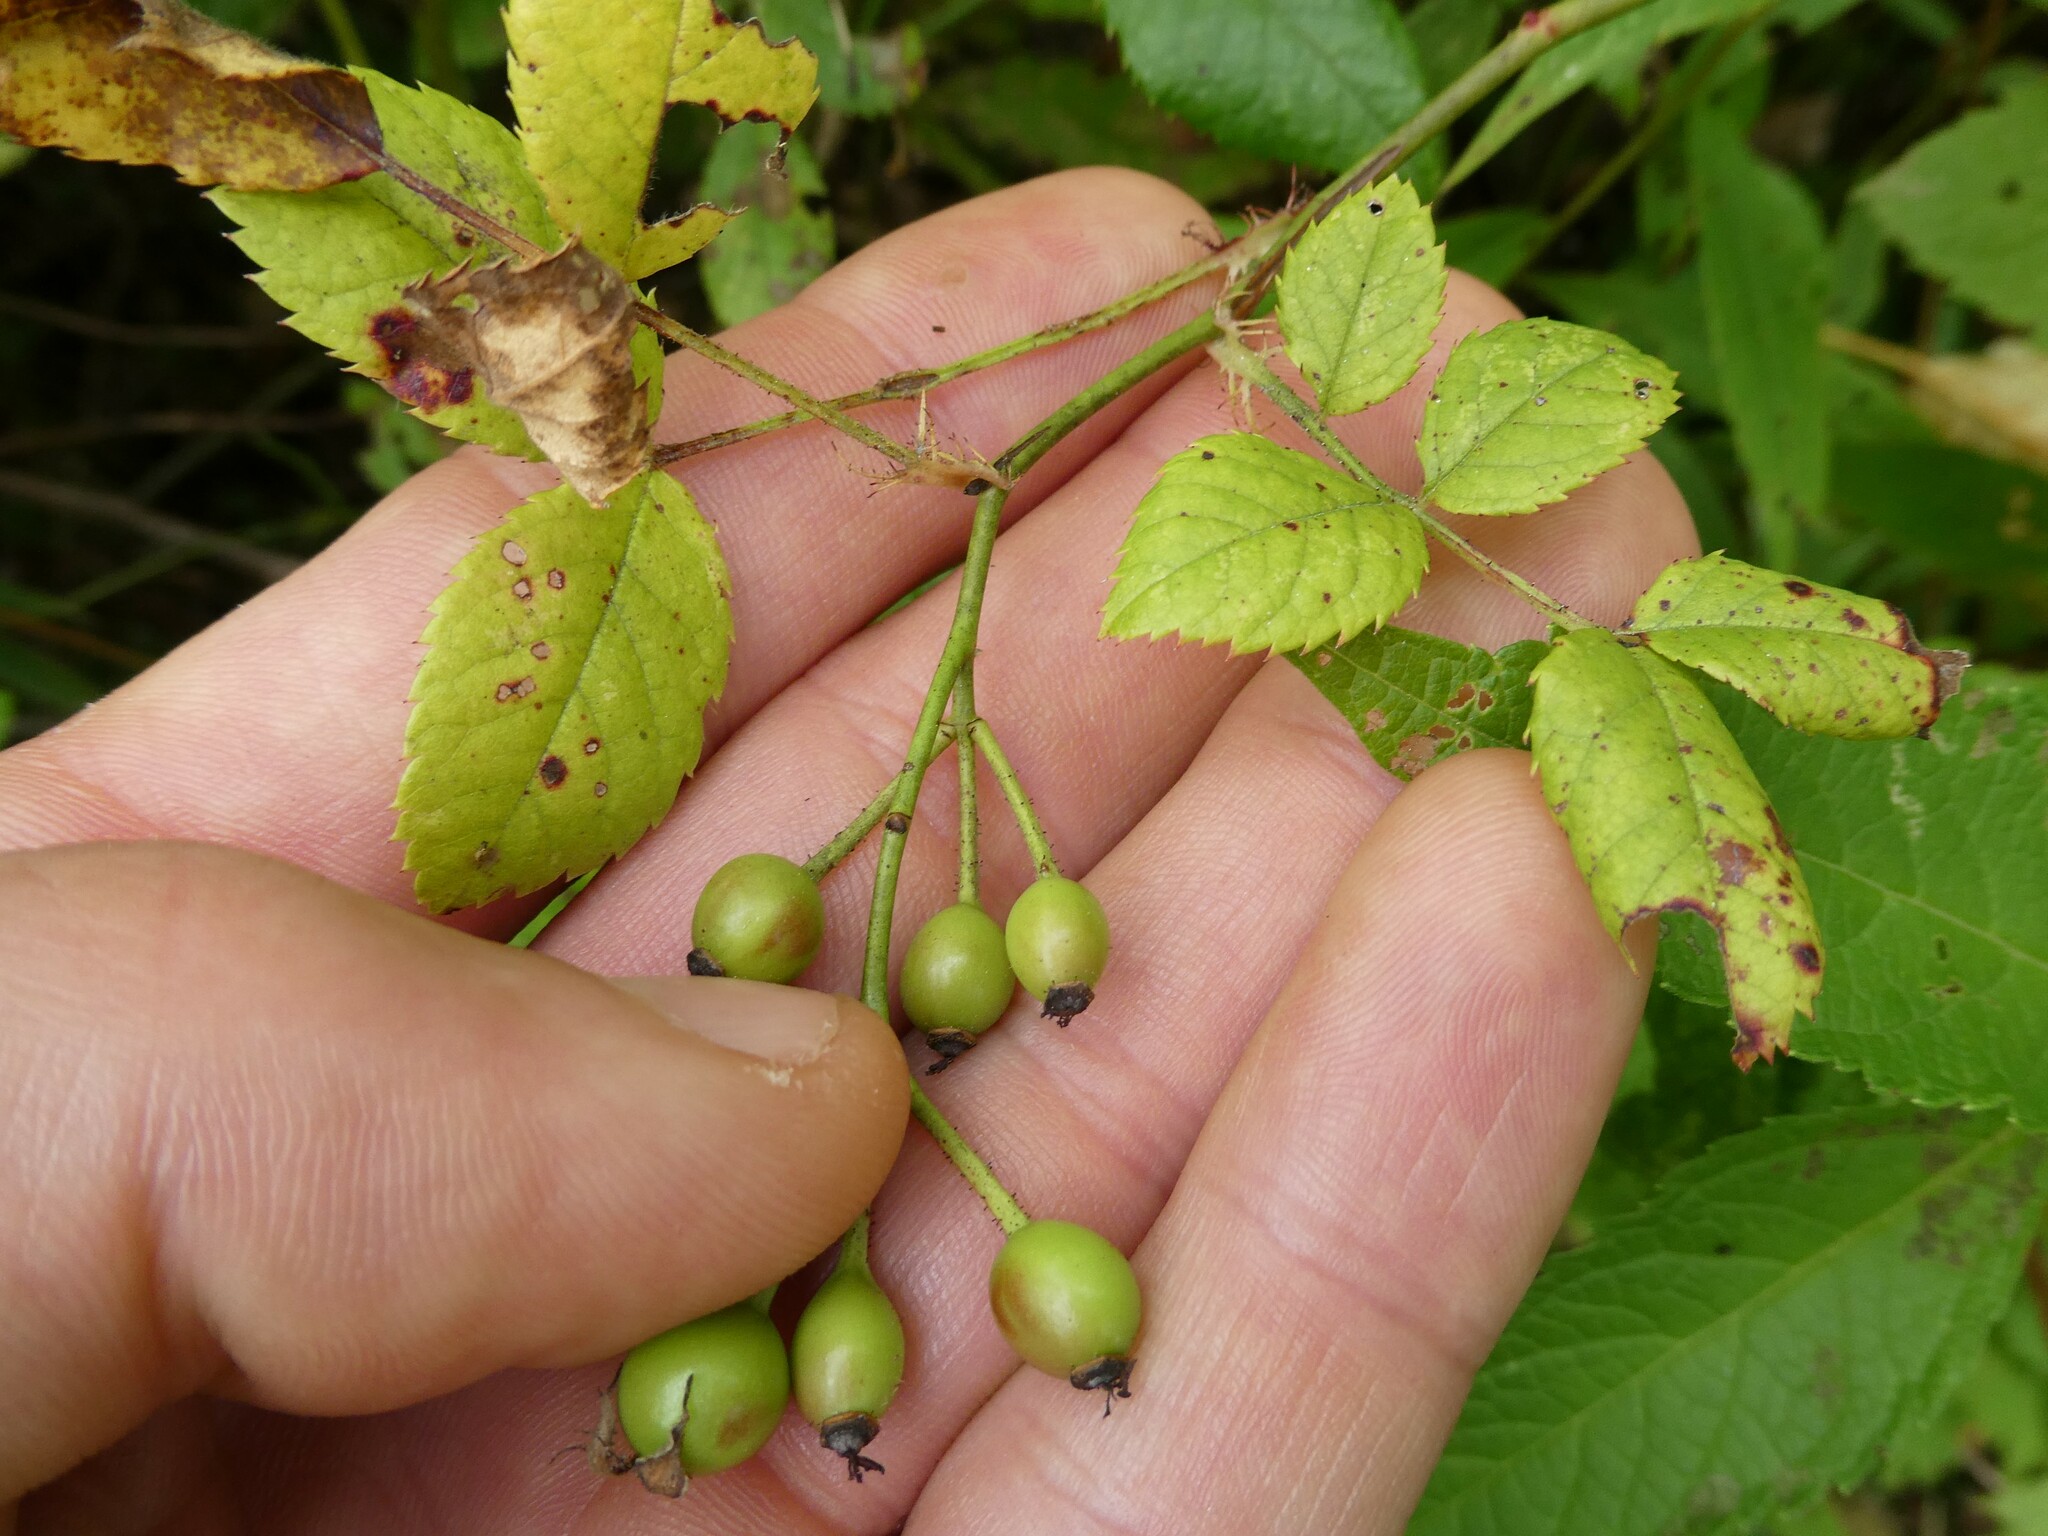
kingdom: Plantae
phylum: Tracheophyta
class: Magnoliopsida
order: Rosales
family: Rosaceae
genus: Rosa
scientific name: Rosa multiflora
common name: Multiflora rose
